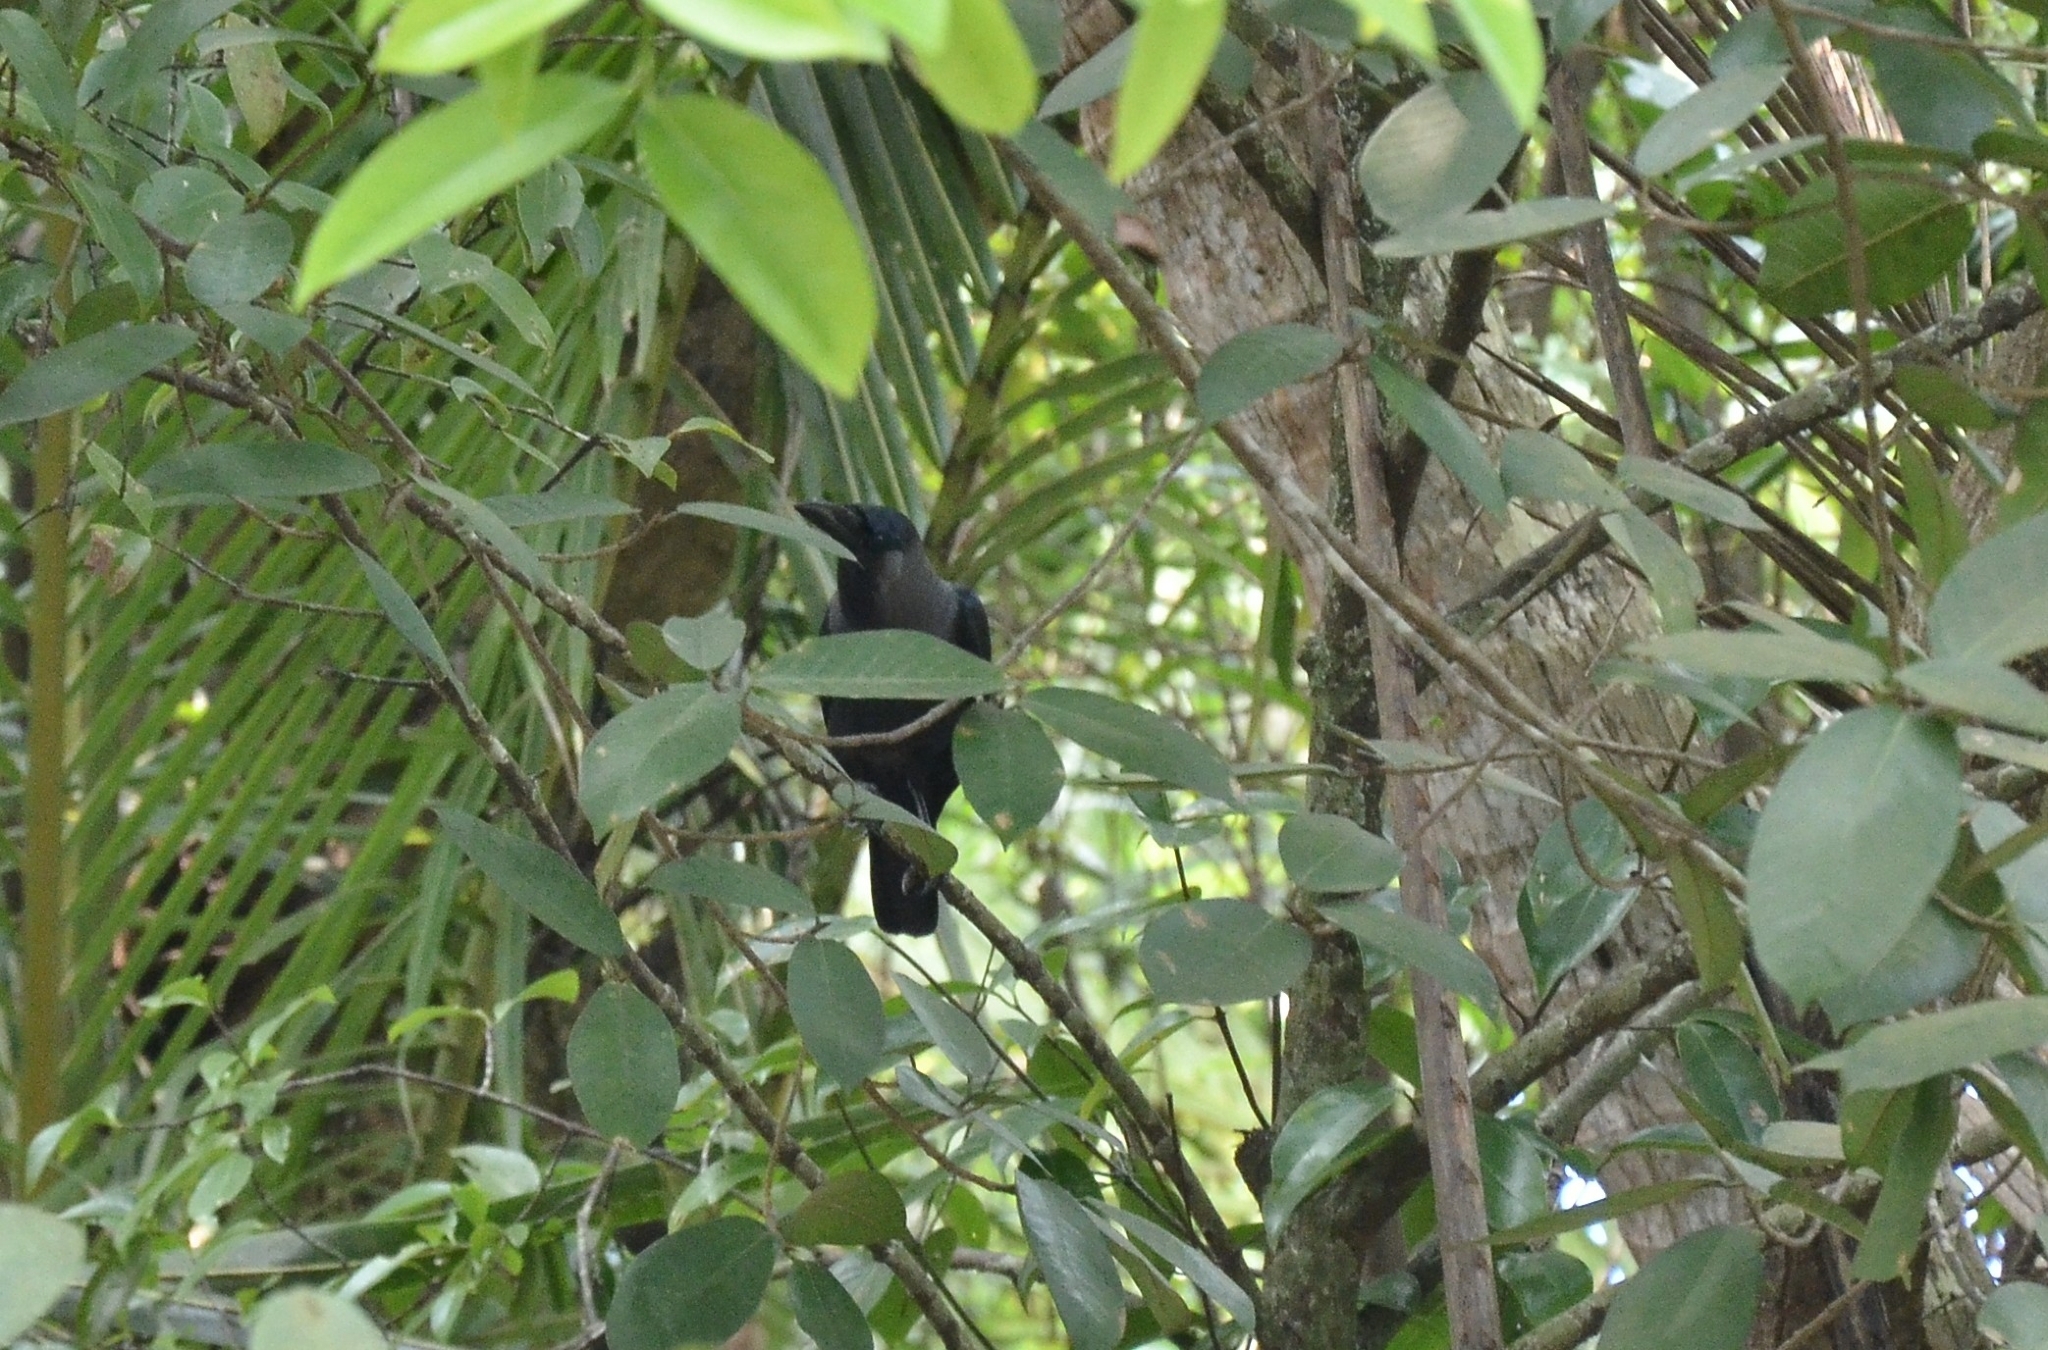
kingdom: Animalia
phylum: Chordata
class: Aves
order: Passeriformes
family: Corvidae
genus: Corvus
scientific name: Corvus splendens
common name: House crow
